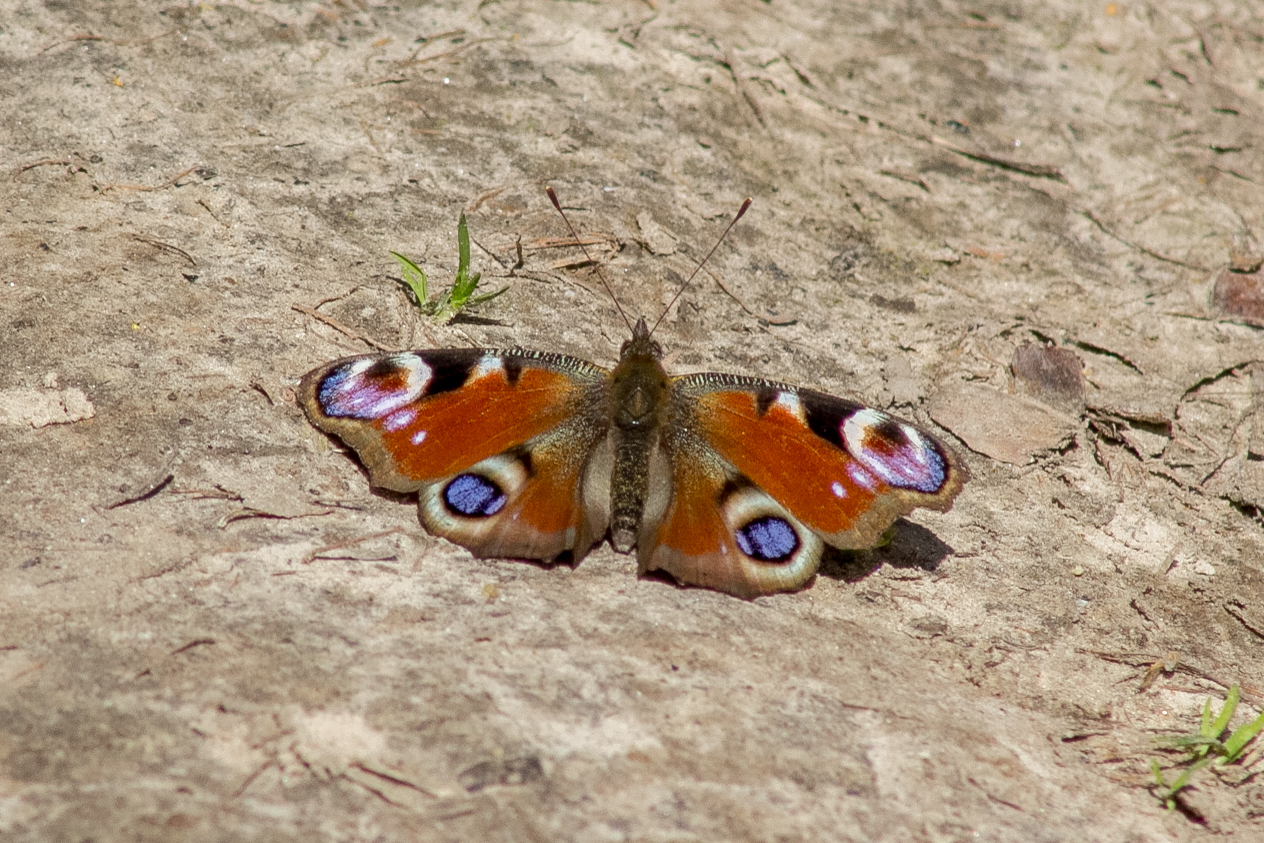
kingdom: Animalia
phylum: Arthropoda
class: Insecta
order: Lepidoptera
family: Nymphalidae
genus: Aglais
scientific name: Aglais io
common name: Peacock
